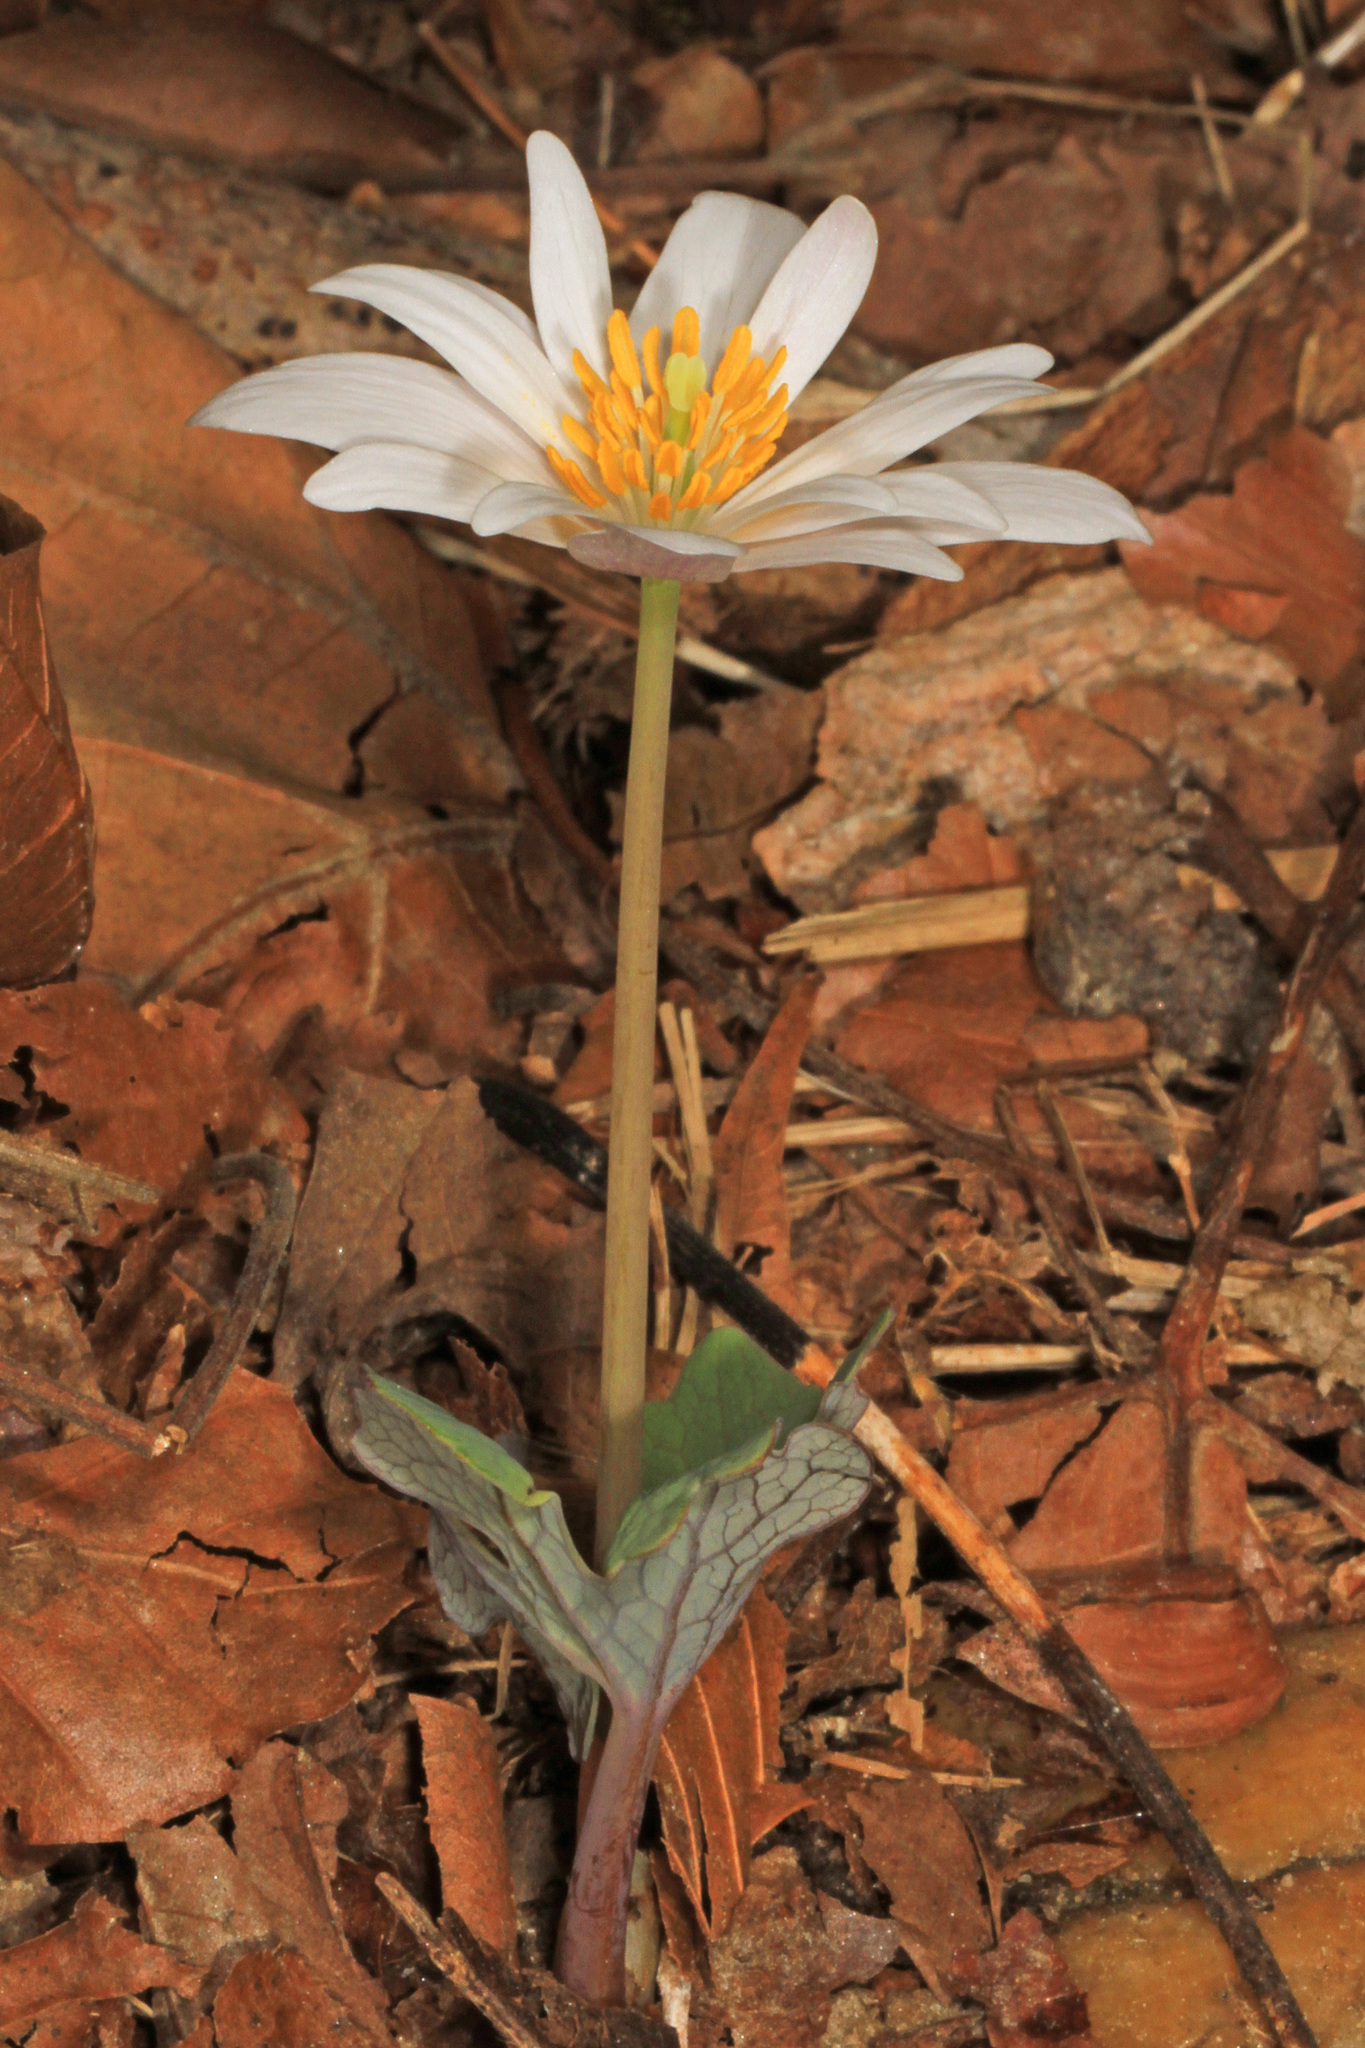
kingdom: Plantae
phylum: Tracheophyta
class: Magnoliopsida
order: Ranunculales
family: Papaveraceae
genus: Sanguinaria
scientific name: Sanguinaria canadensis
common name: Bloodroot
